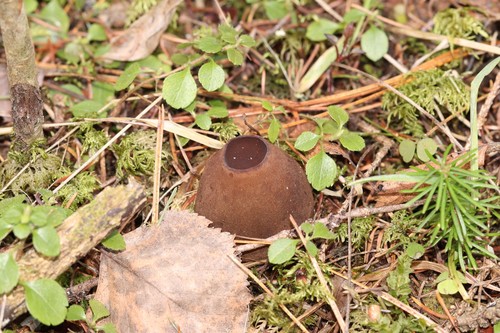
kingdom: Fungi
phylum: Ascomycota
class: Pezizomycetes
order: Pezizales
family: Sarcosomataceae
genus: Sarcosoma
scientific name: Sarcosoma globosum
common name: Charred-pancake cup
